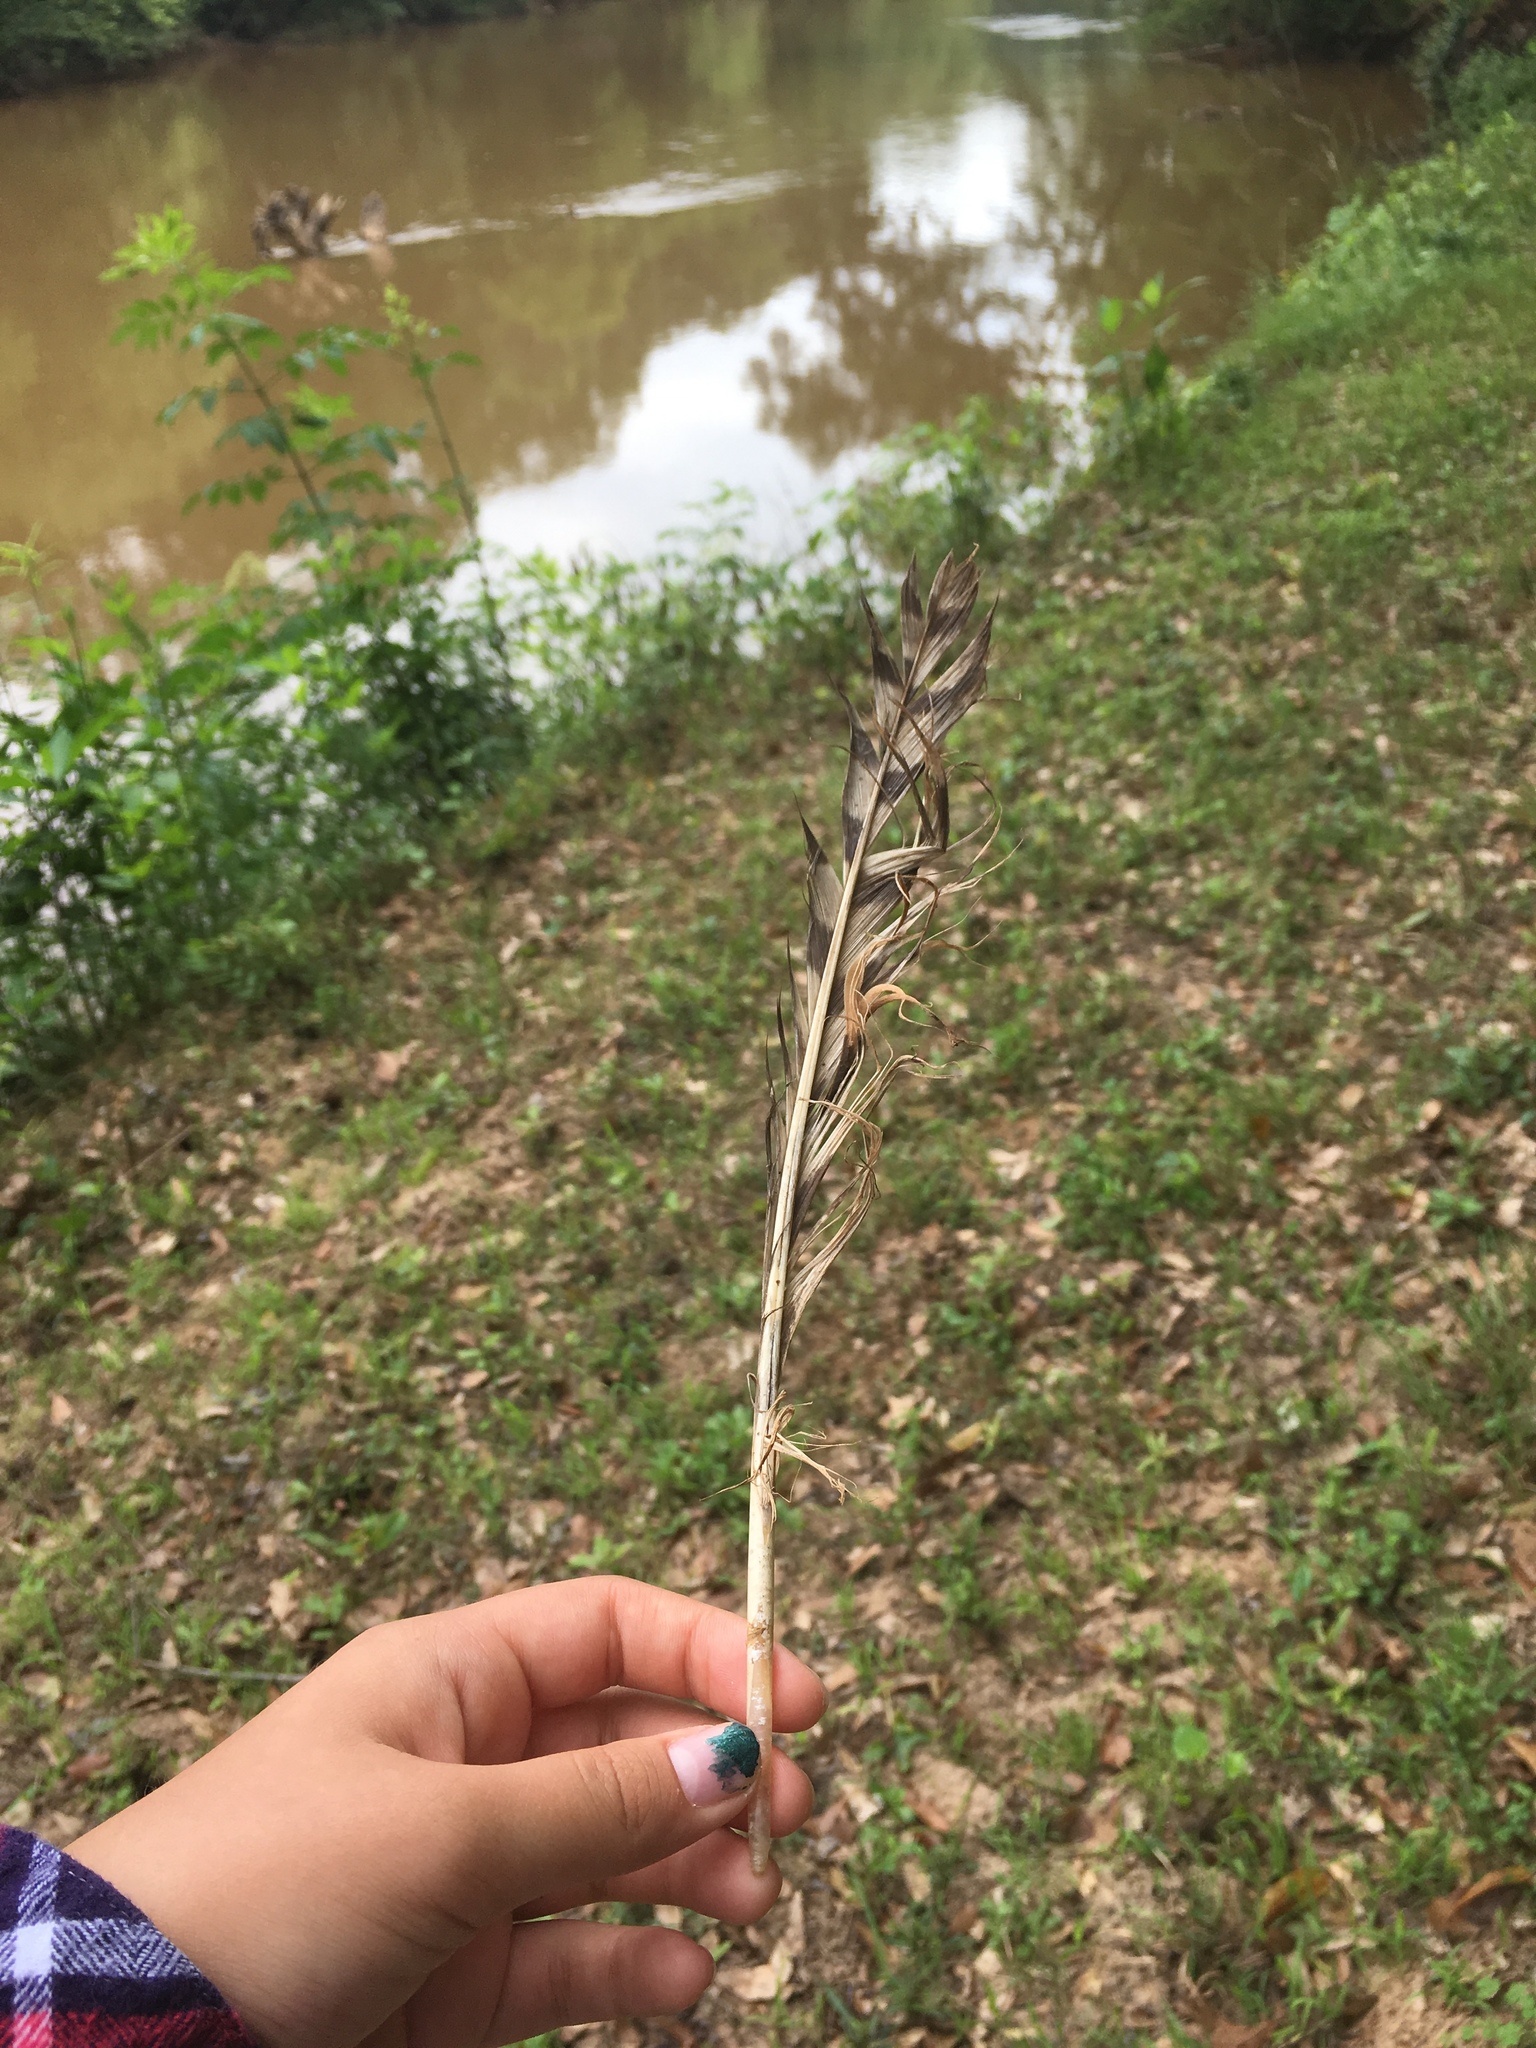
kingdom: Animalia
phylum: Chordata
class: Aves
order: Strigiformes
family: Strigidae
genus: Bubo
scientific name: Bubo virginianus
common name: Great horned owl
